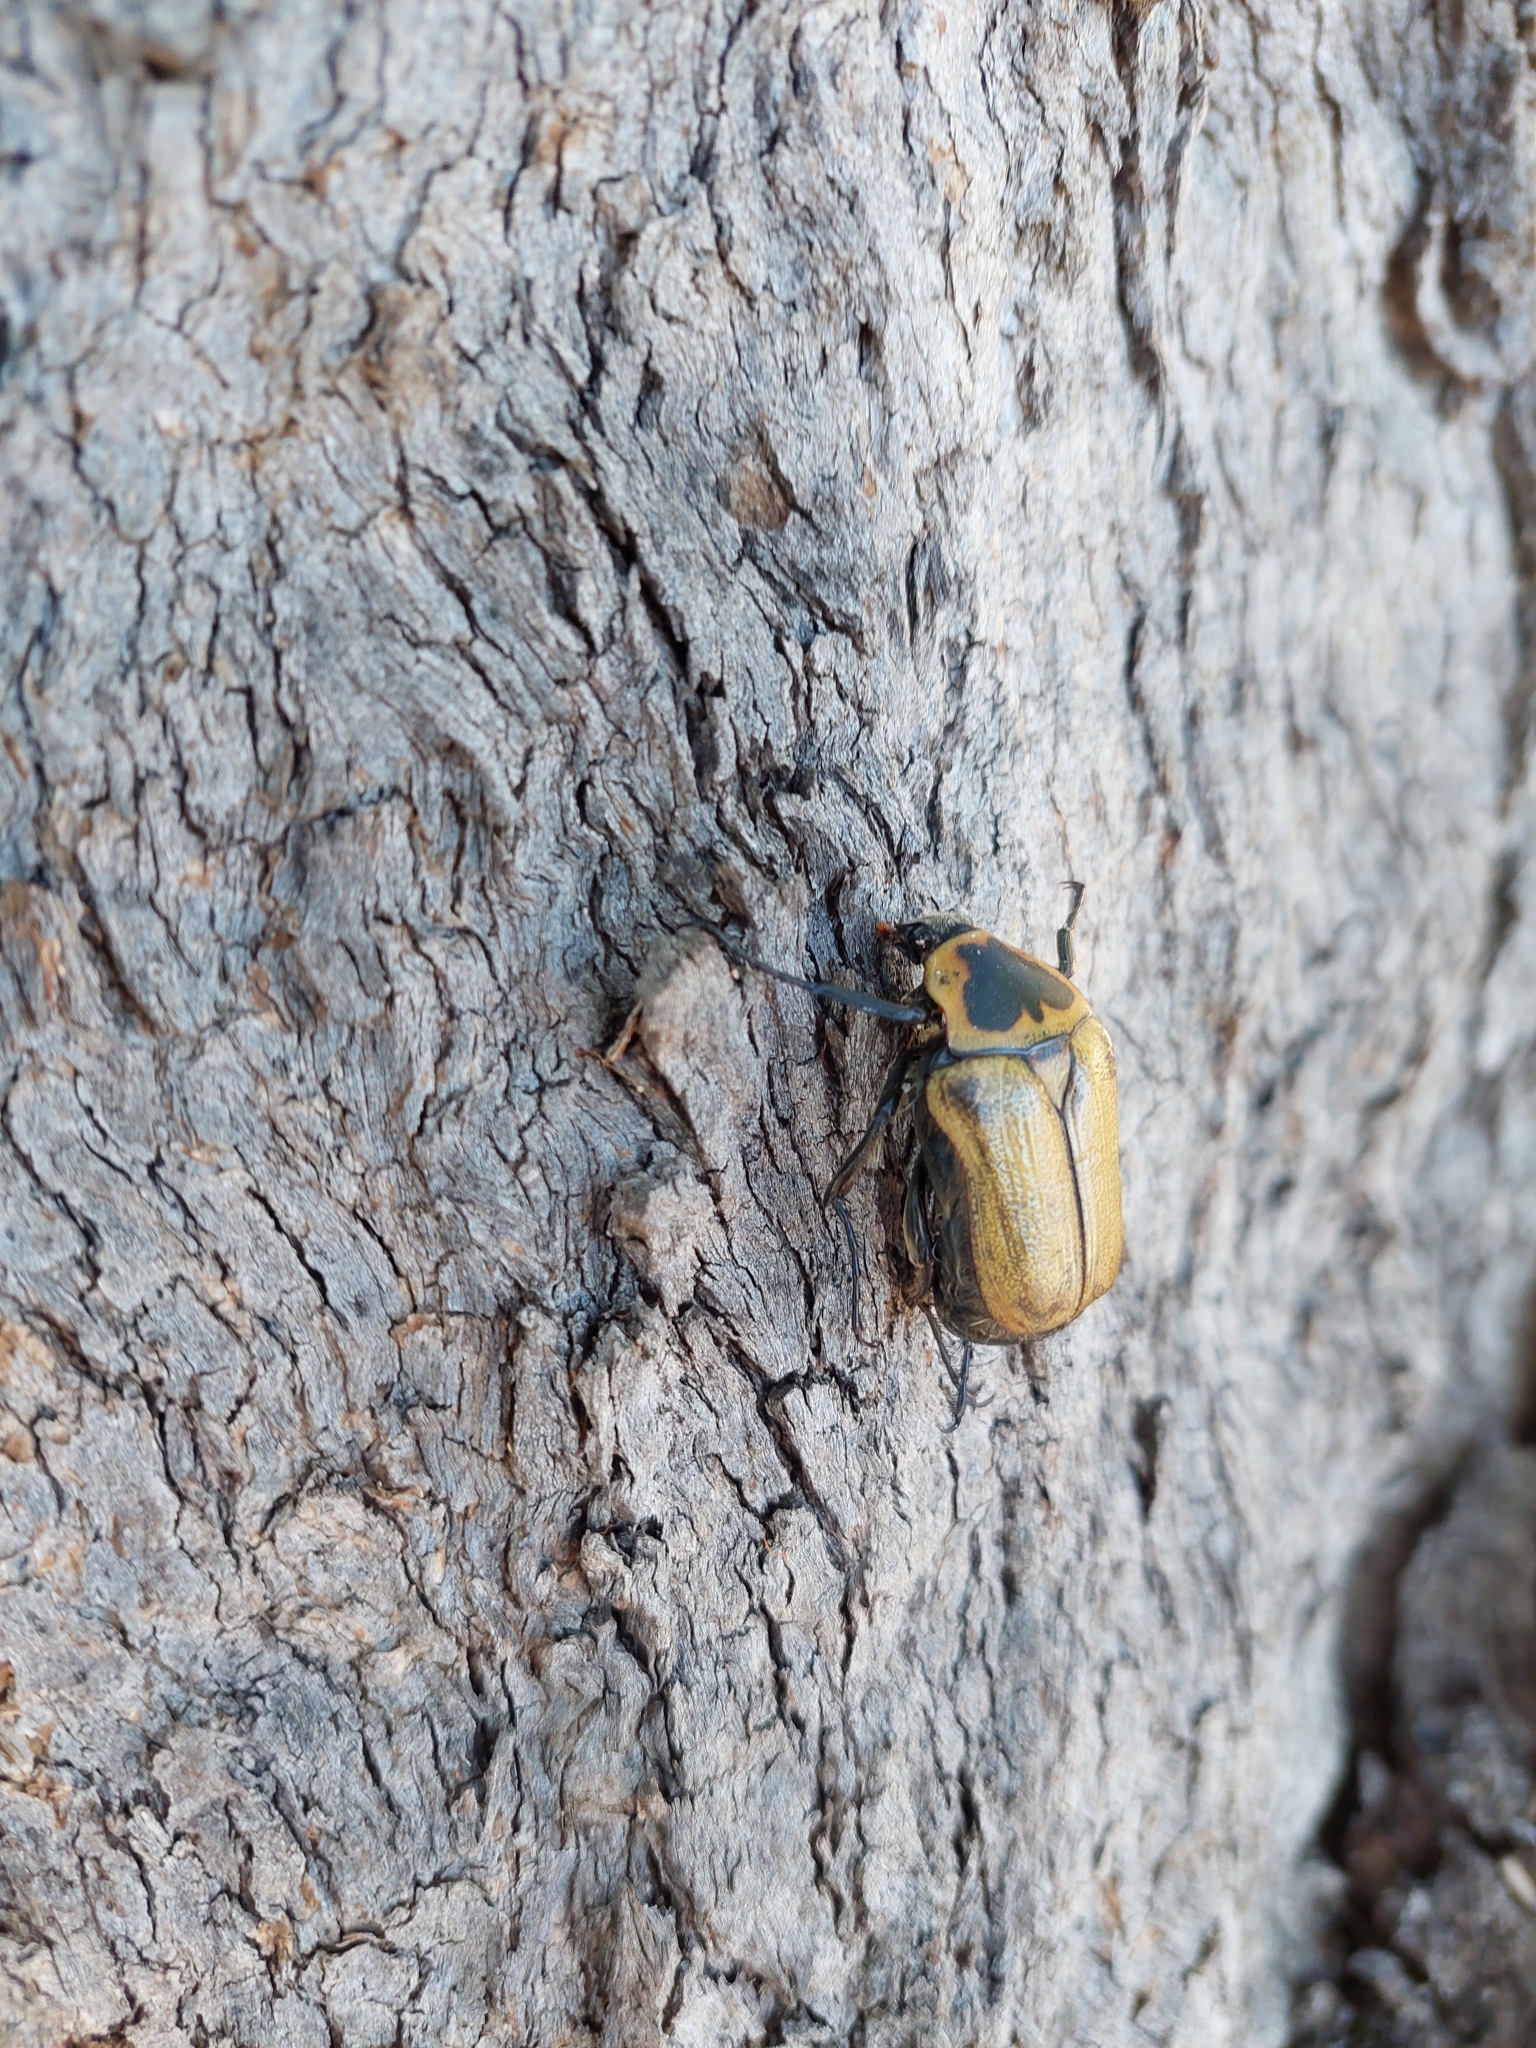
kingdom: Animalia
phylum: Arthropoda
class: Insecta
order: Coleoptera
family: Scarabaeidae
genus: Hemichnoodes
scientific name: Hemichnoodes parryi
